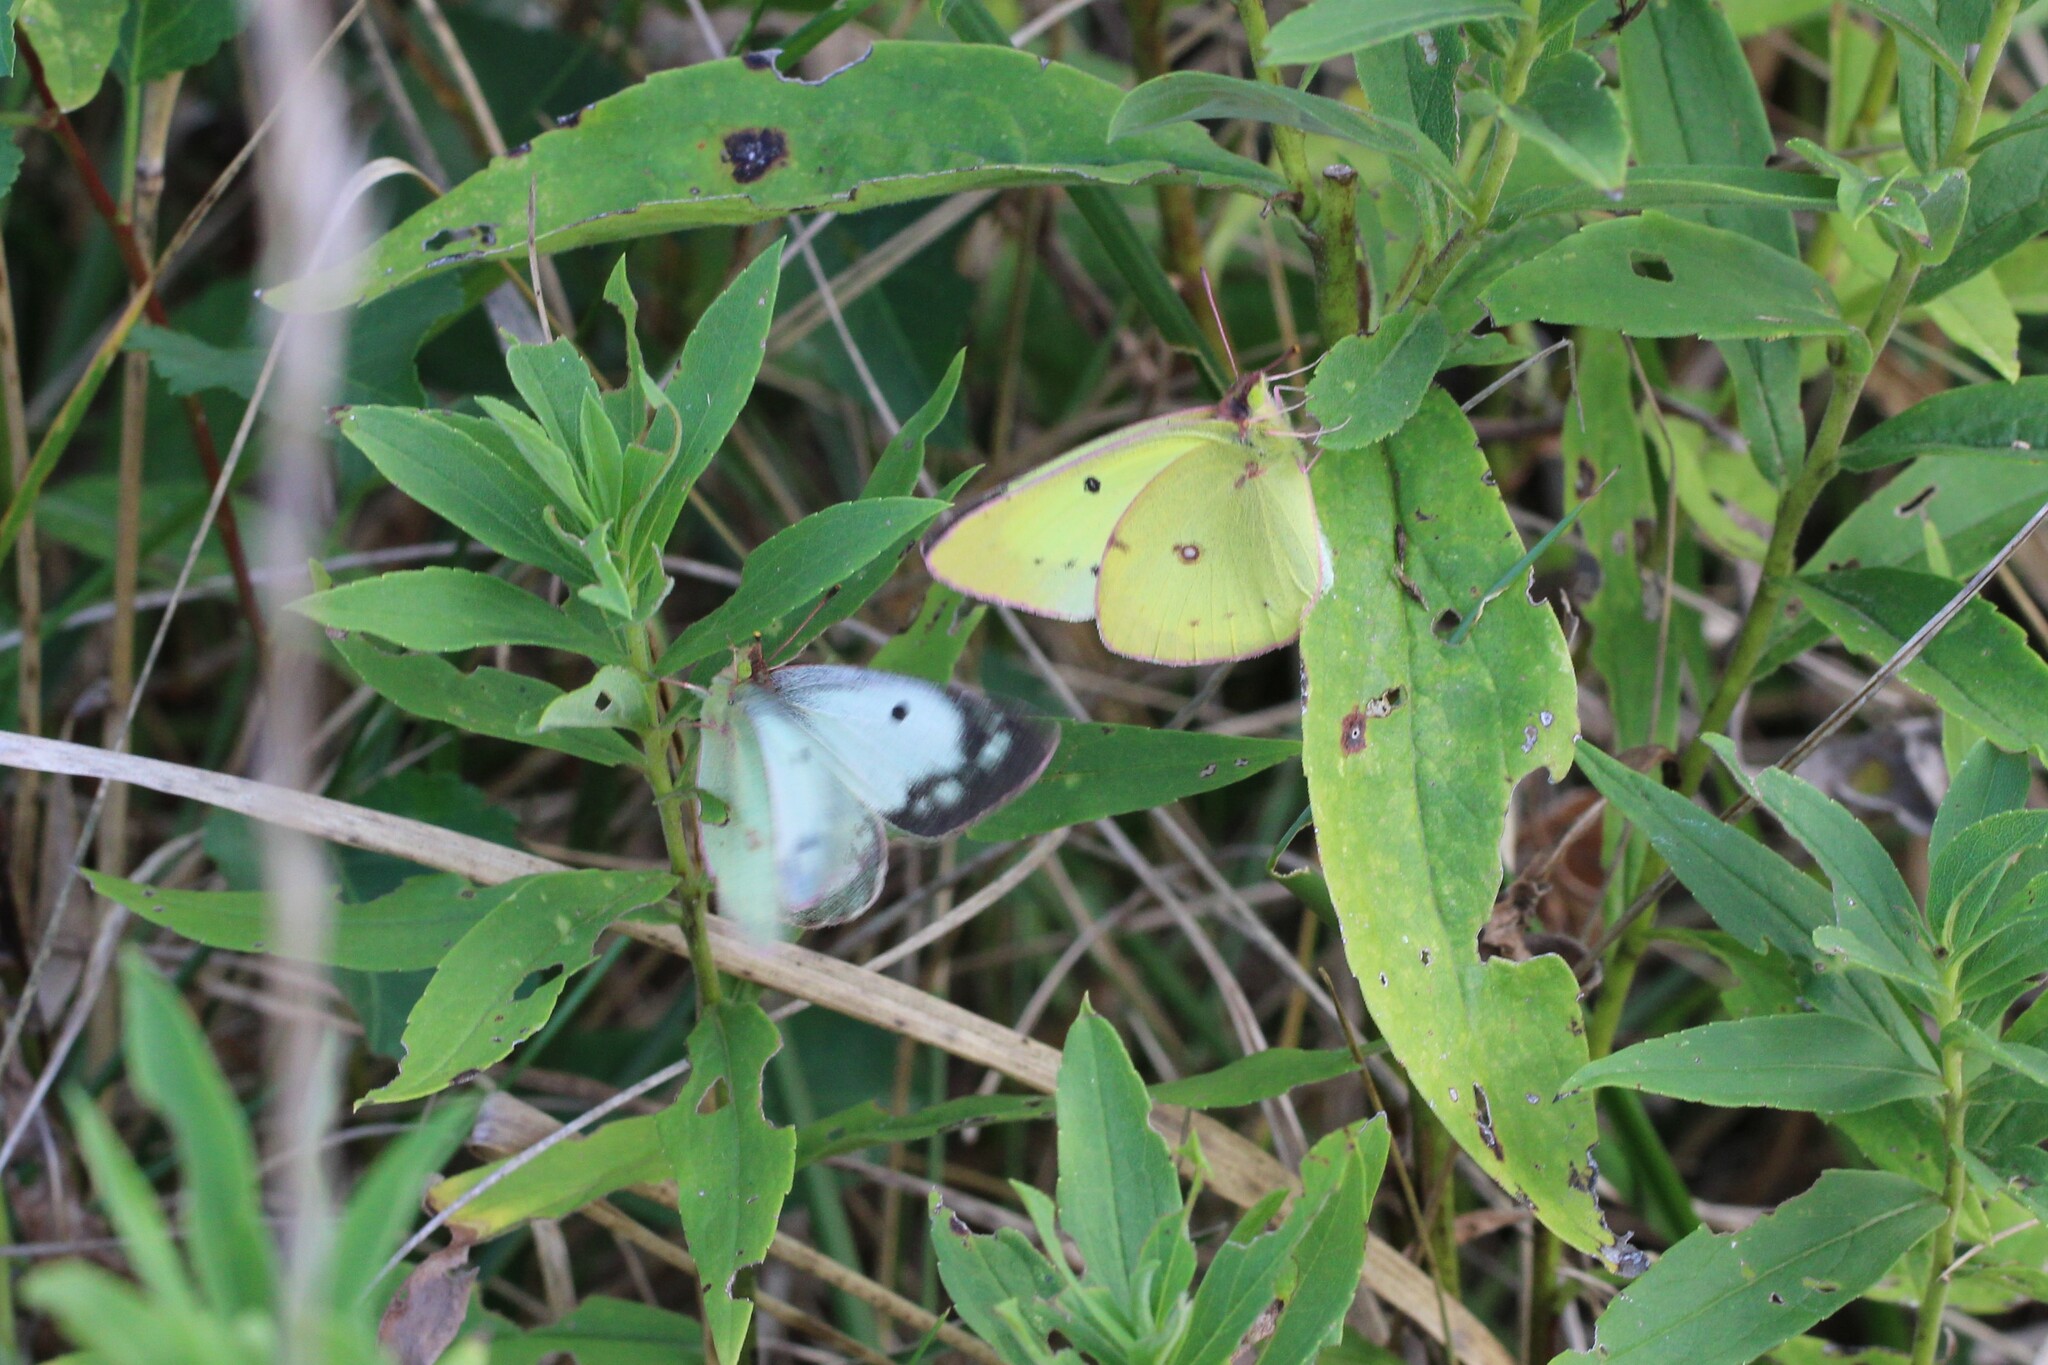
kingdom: Animalia
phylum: Arthropoda
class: Insecta
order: Lepidoptera
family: Pieridae
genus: Colias
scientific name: Colias philodice
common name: Clouded sulphur
